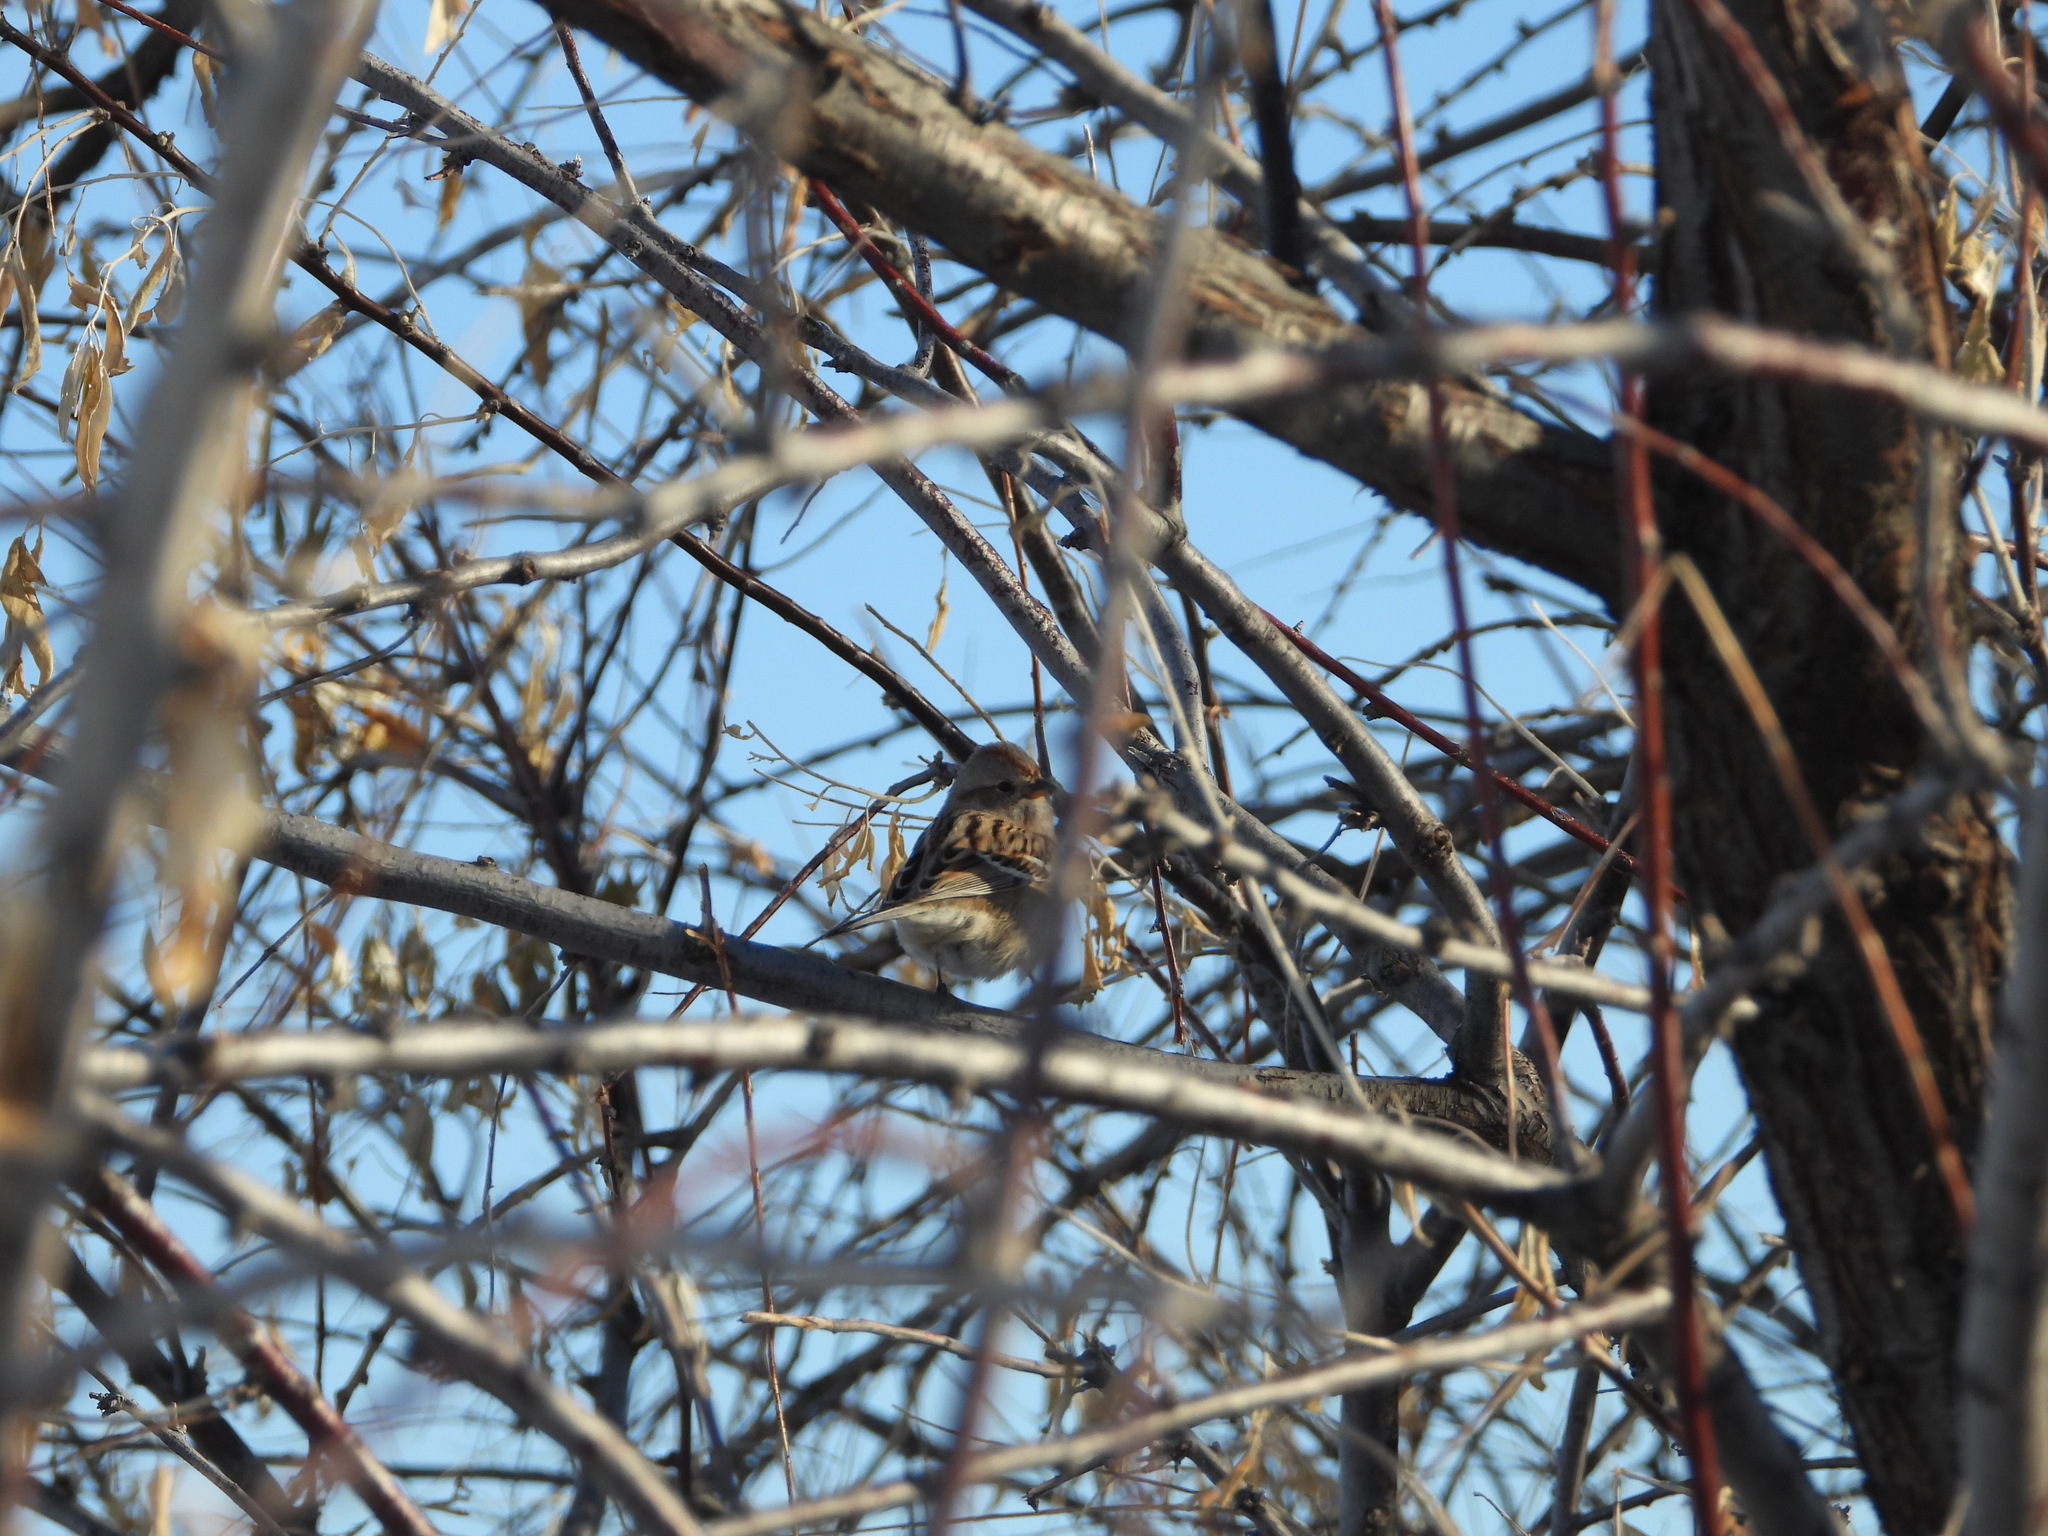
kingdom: Animalia
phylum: Chordata
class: Aves
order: Passeriformes
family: Passerellidae
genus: Spizelloides
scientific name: Spizelloides arborea
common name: American tree sparrow
